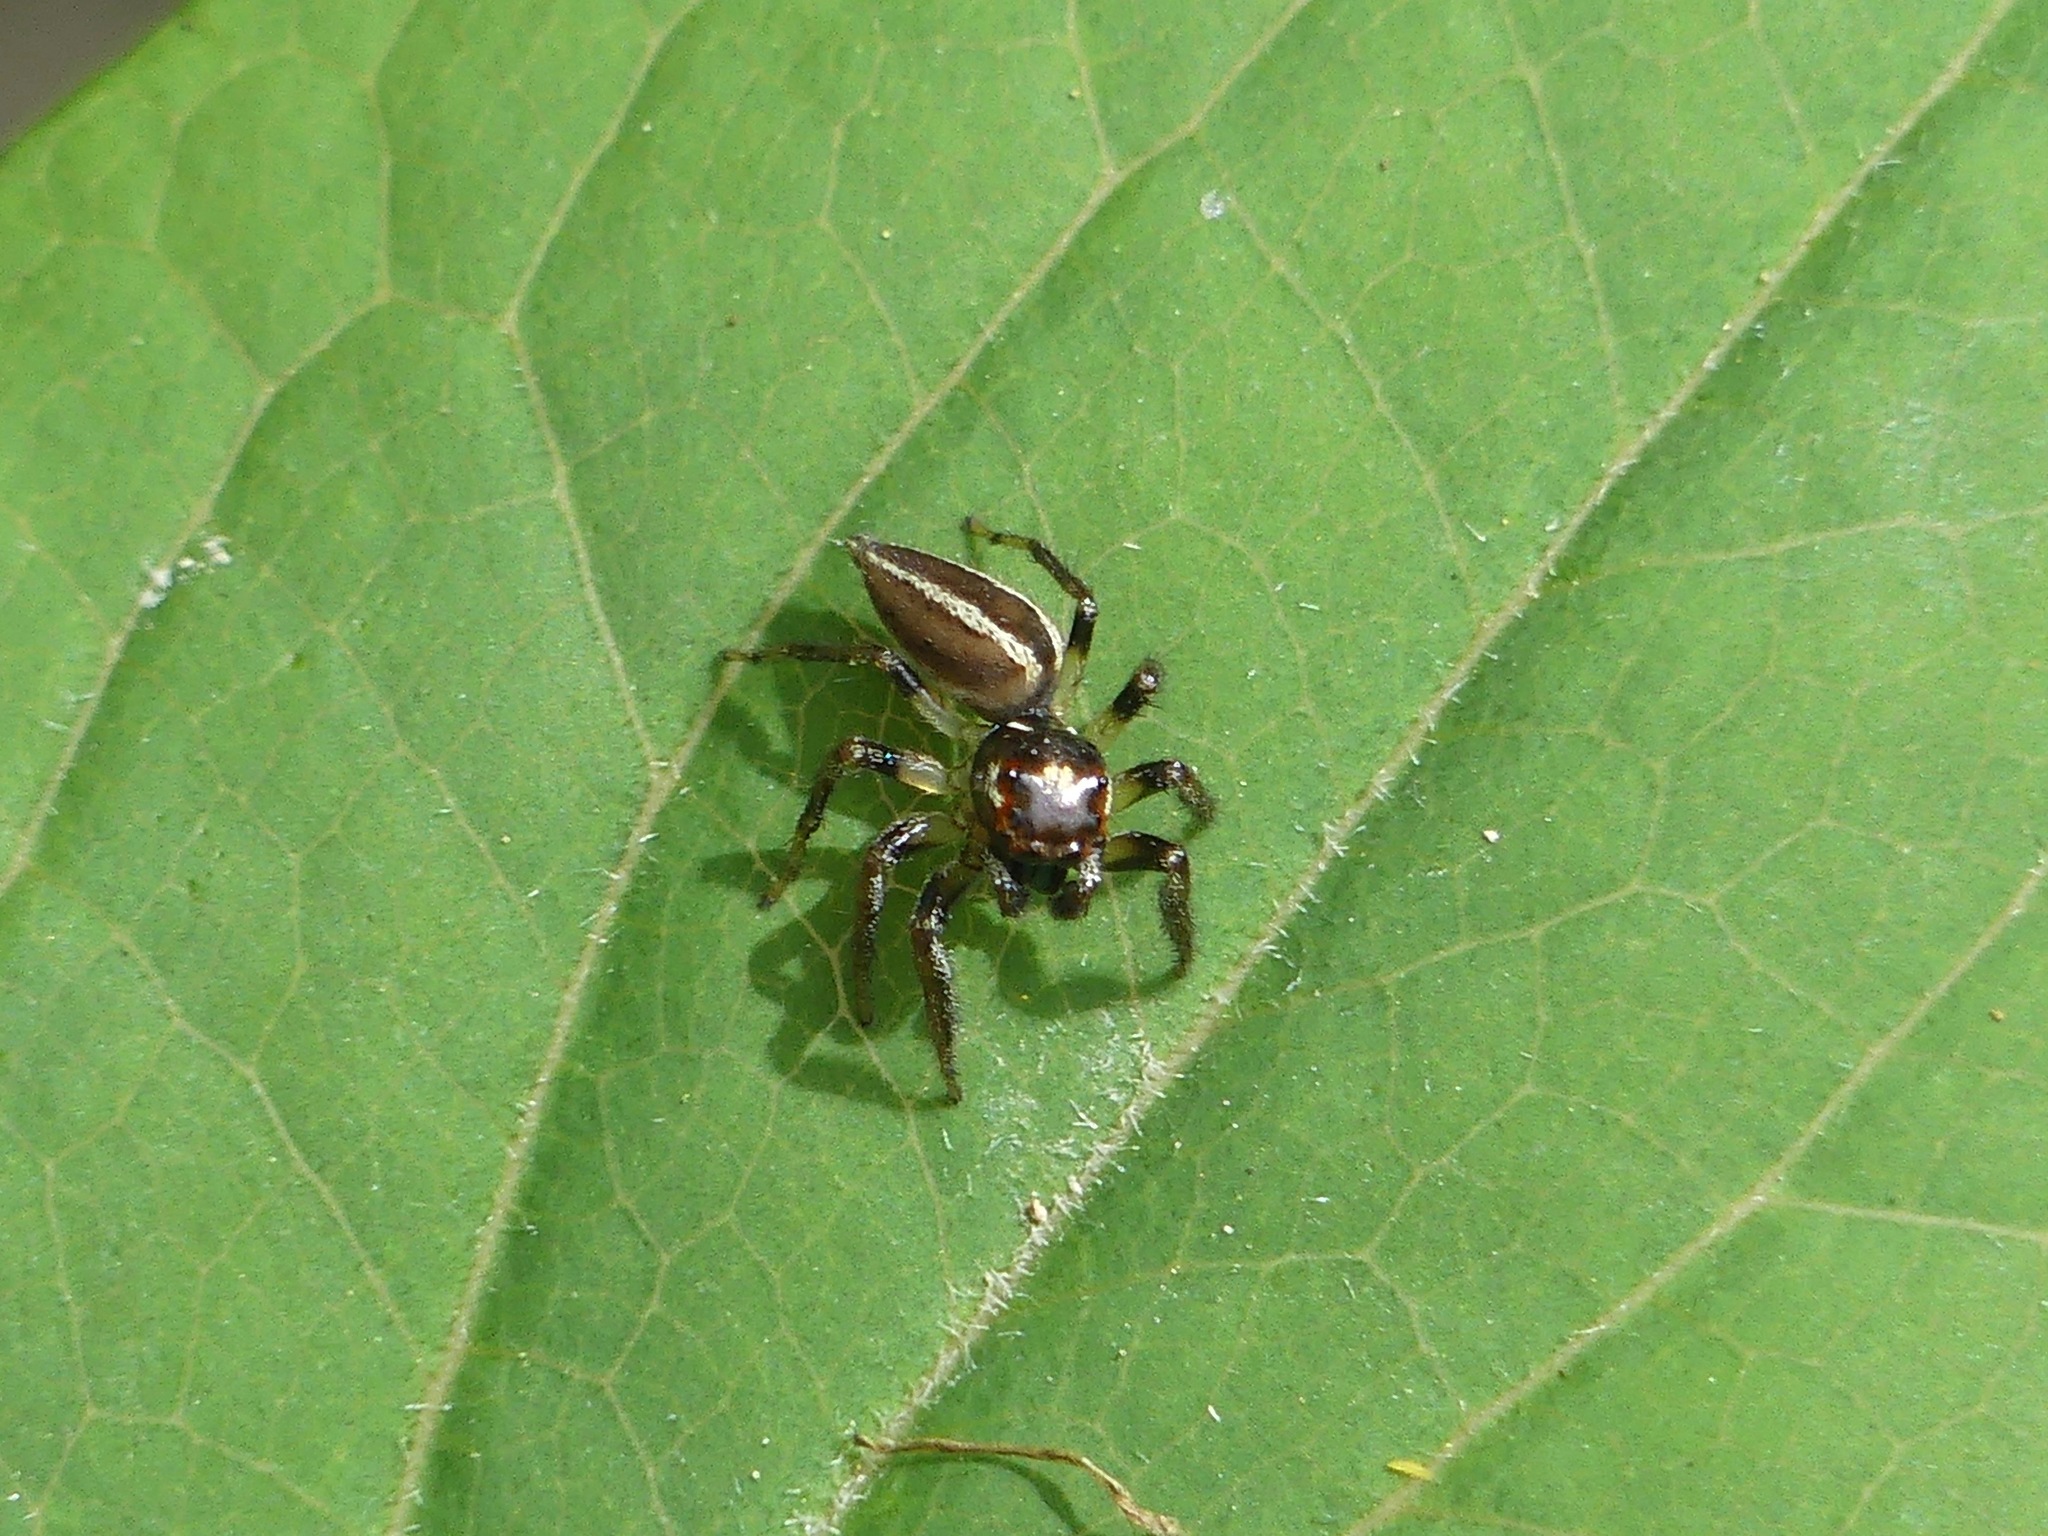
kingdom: Animalia
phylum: Arthropoda
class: Arachnida
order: Araneae
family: Salticidae
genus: Colonus
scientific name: Colonus sylvanus
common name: Jumping spiders
